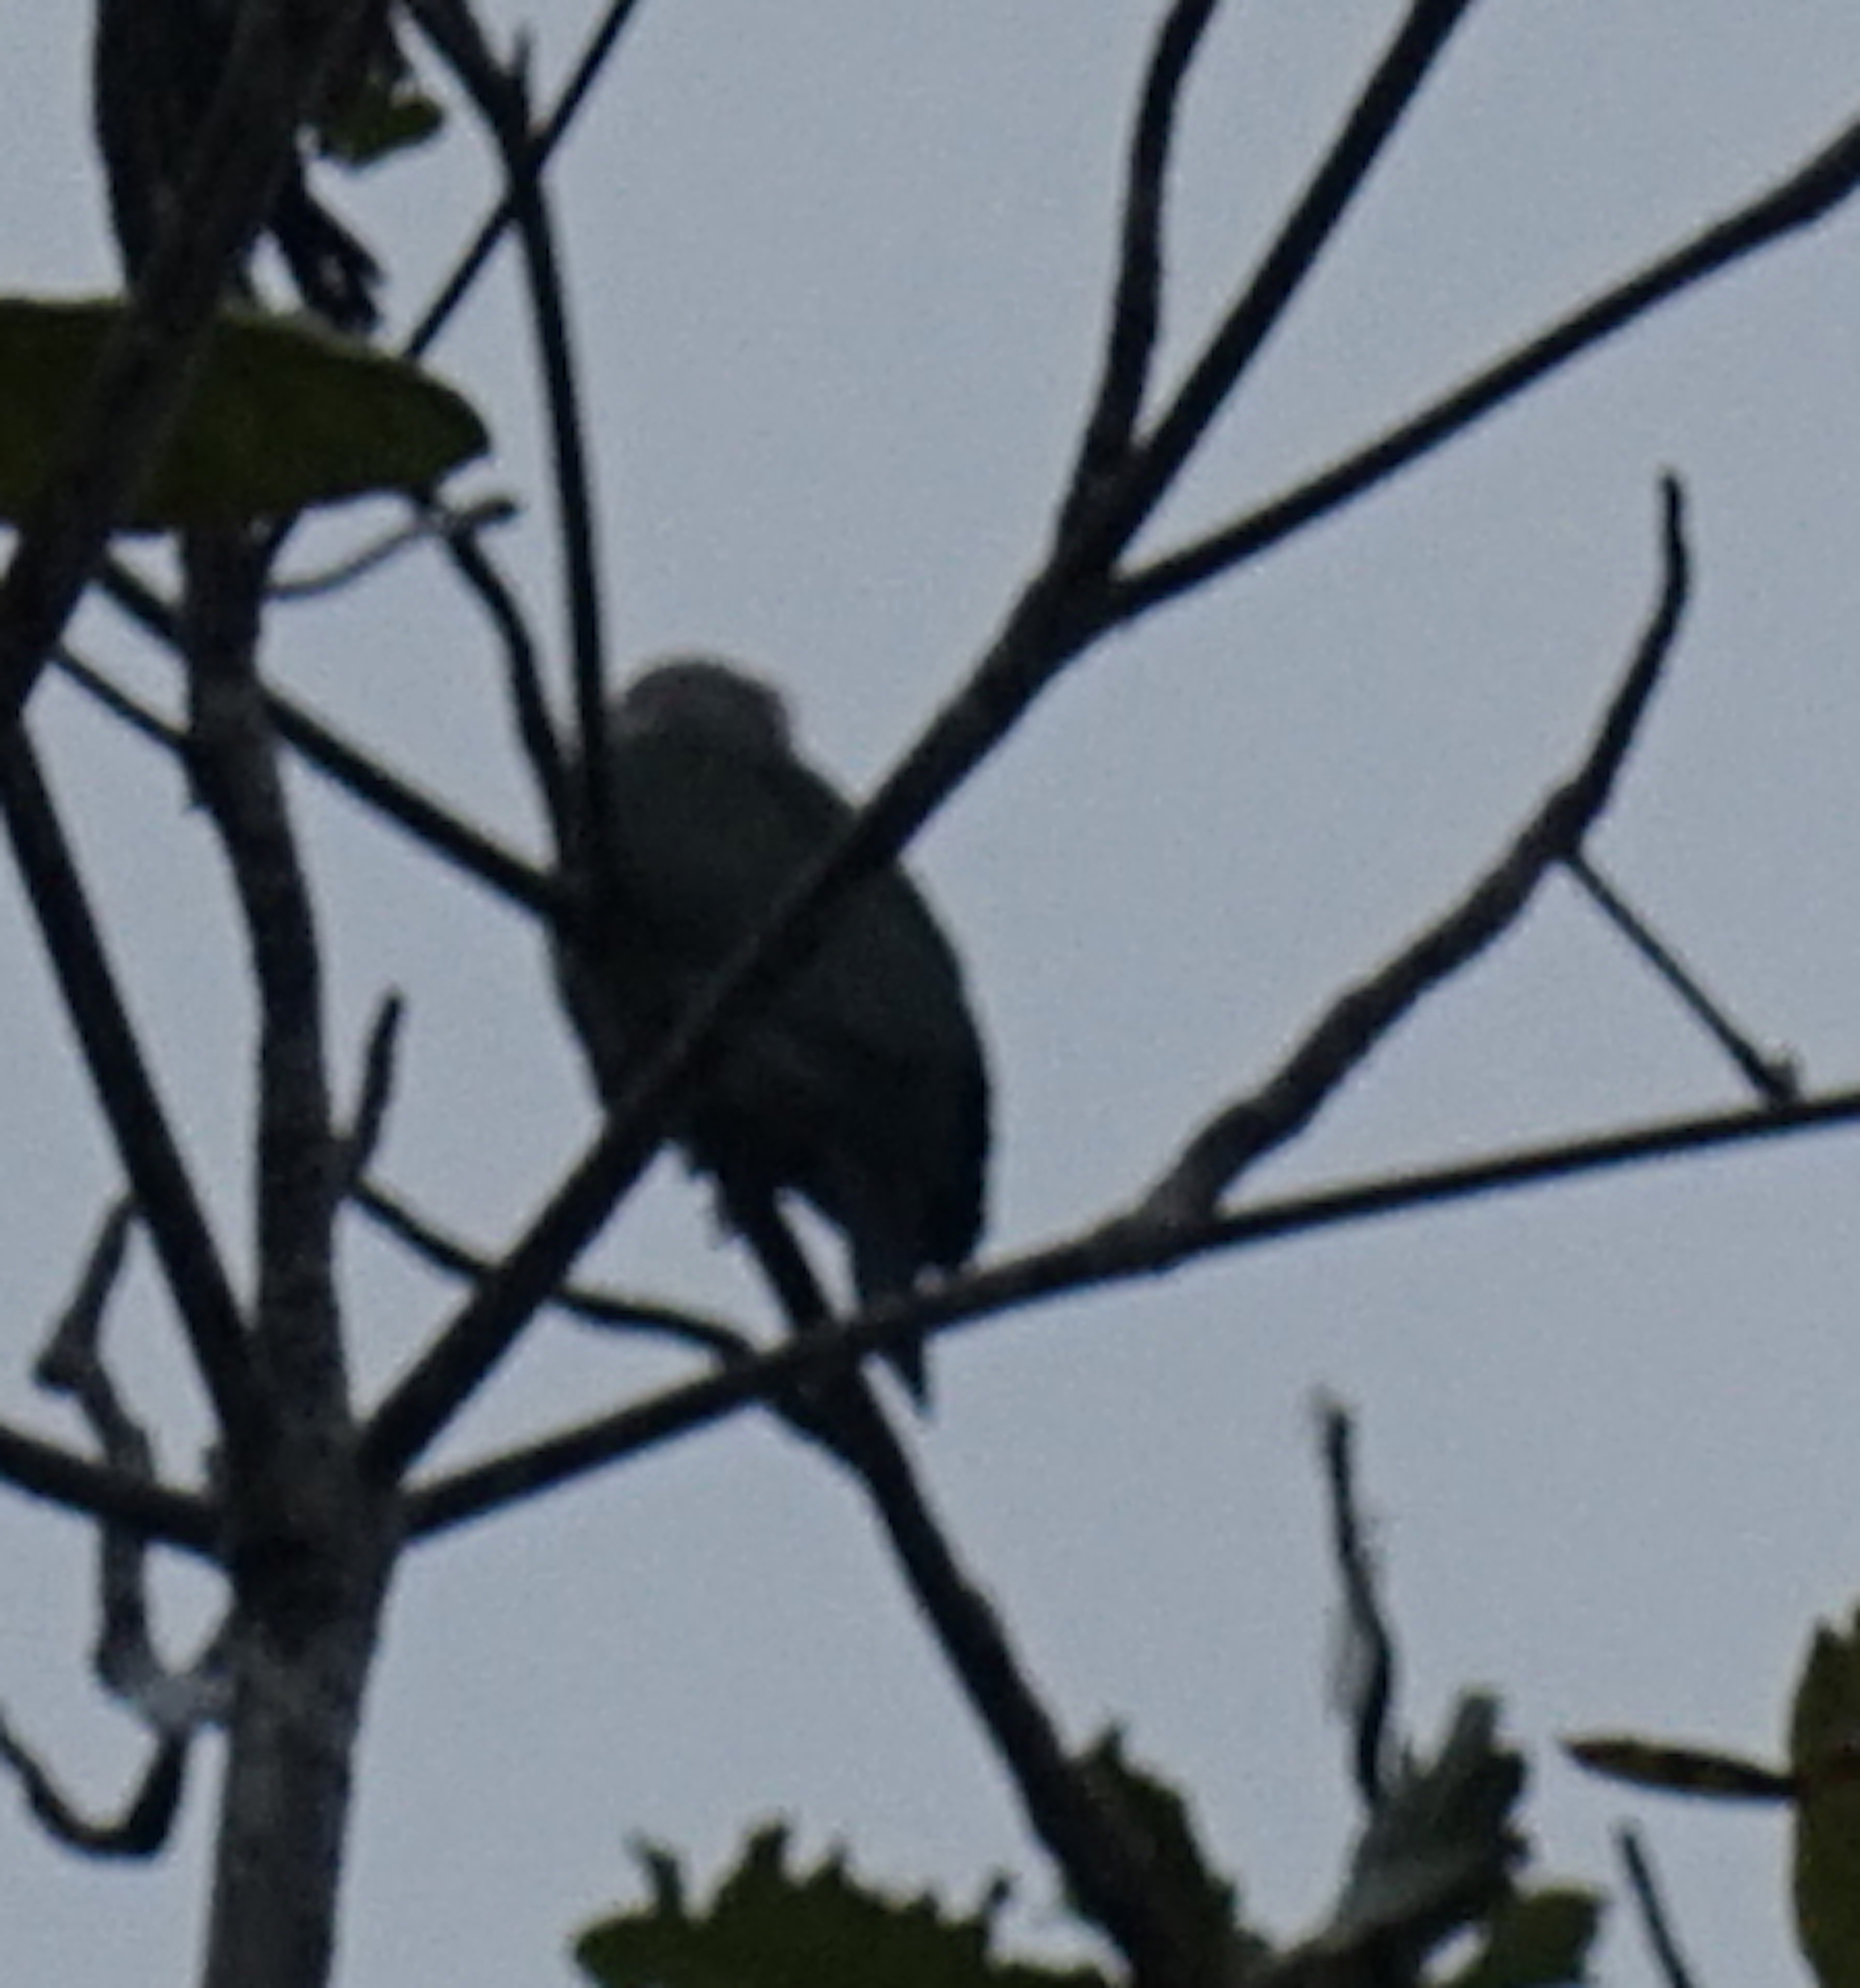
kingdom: Animalia
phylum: Chordata
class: Aves
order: Columbiformes
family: Columbidae
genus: Ducula
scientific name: Ducula aenea
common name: Green imperial pigeon
